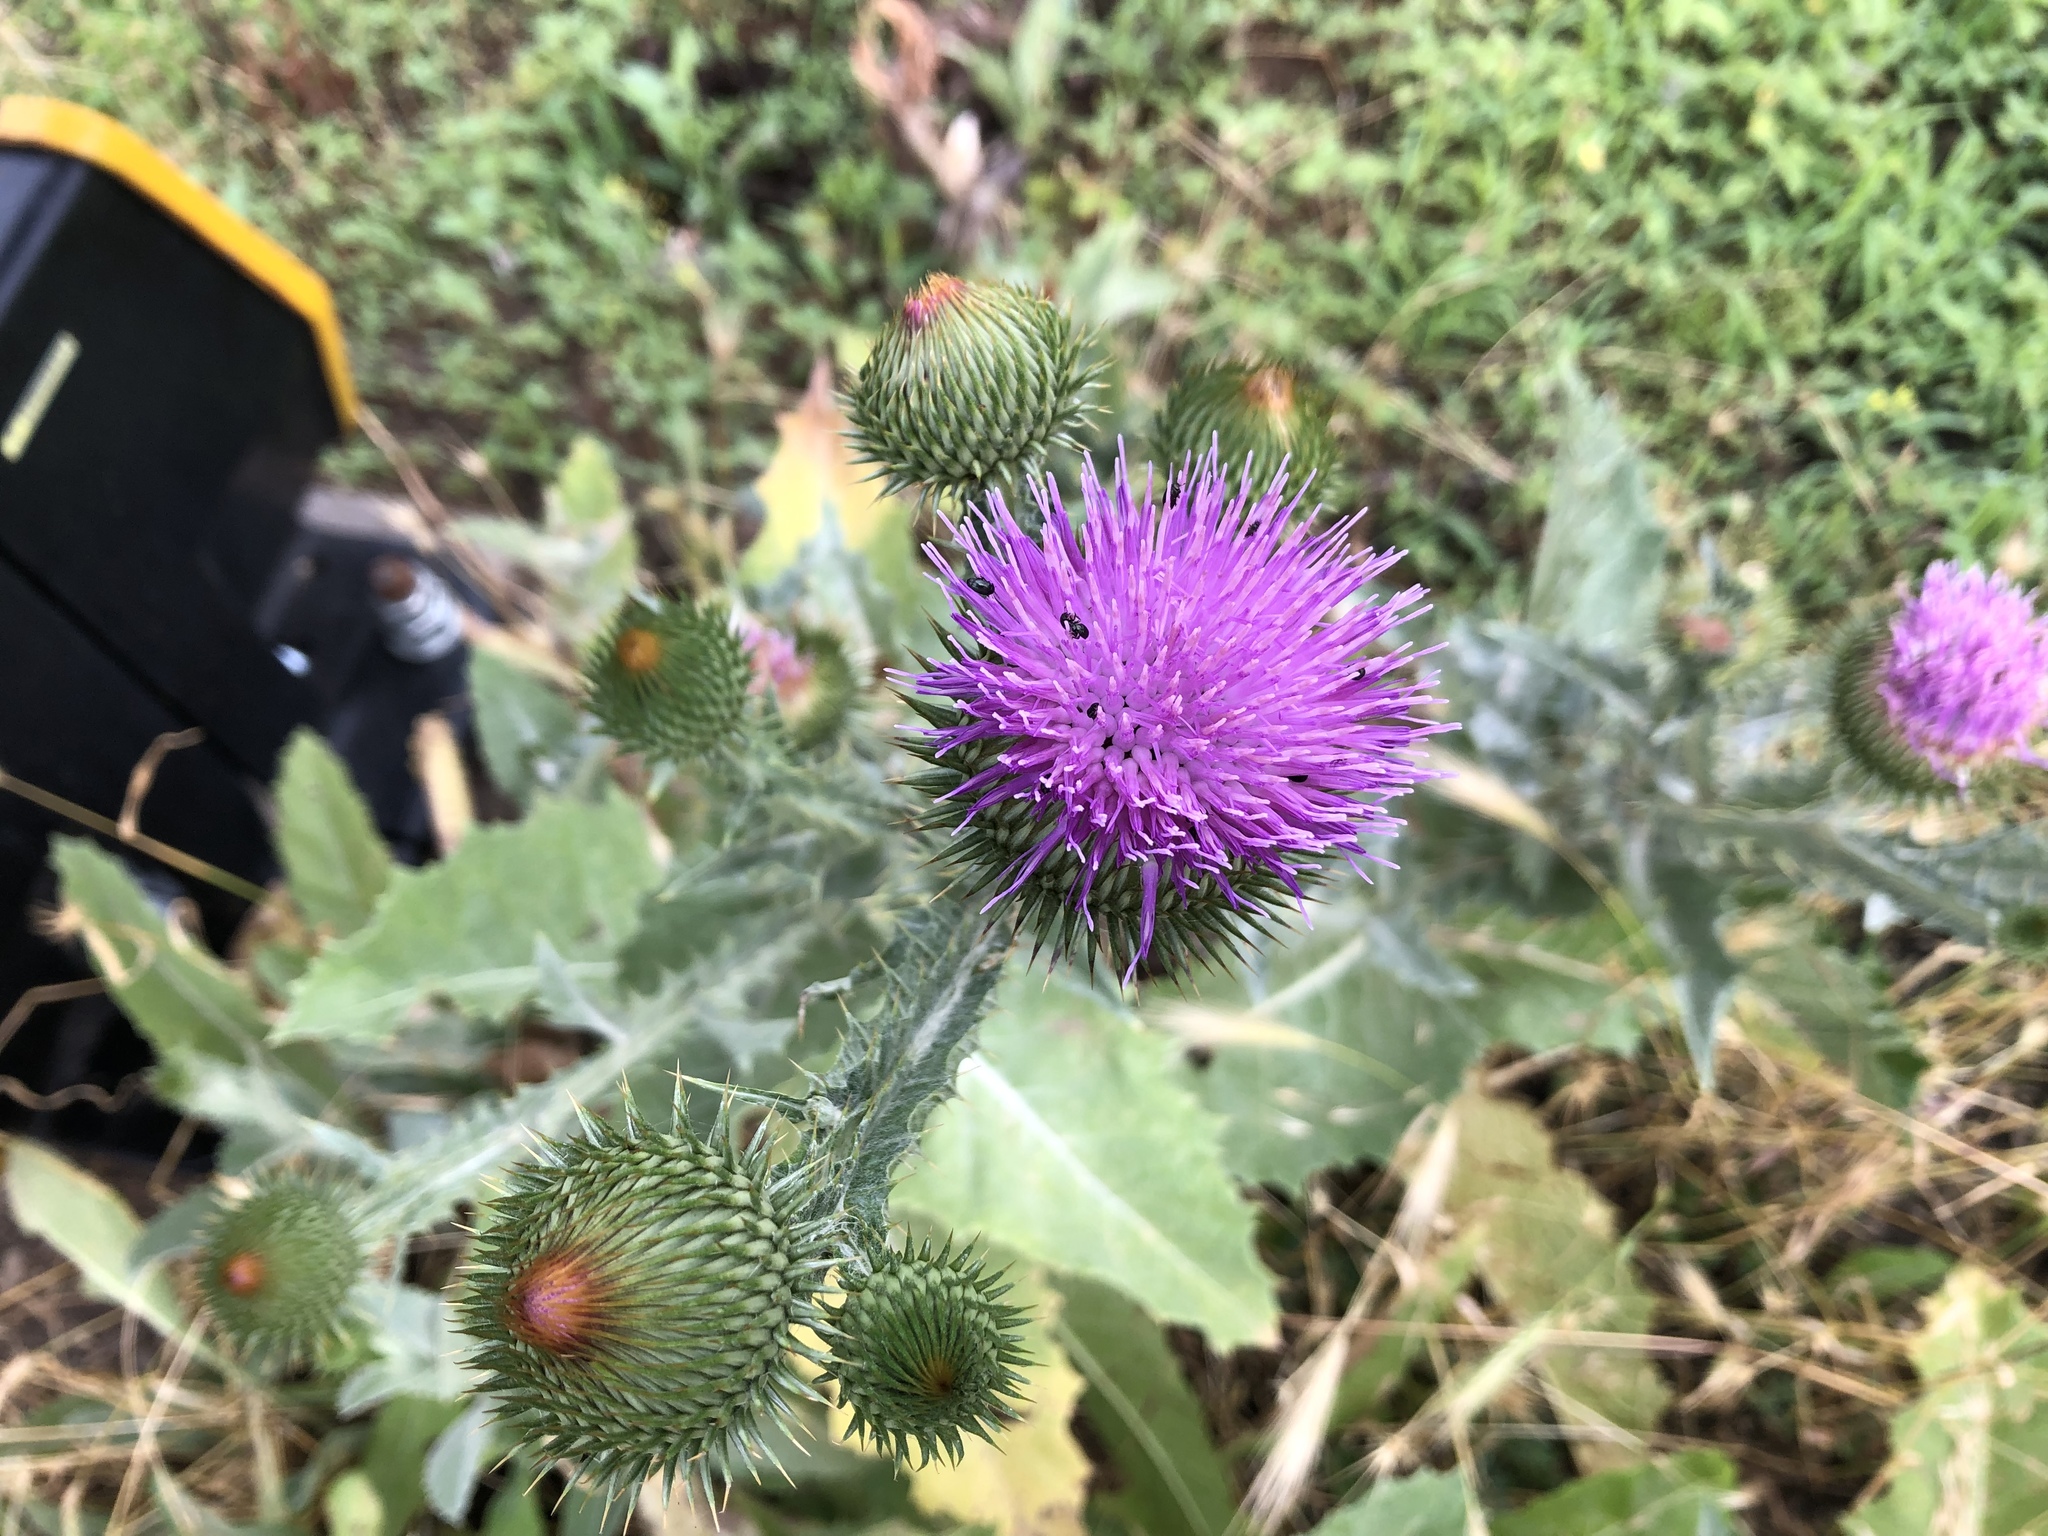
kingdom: Plantae
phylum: Tracheophyta
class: Magnoliopsida
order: Asterales
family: Asteraceae
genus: Onopordum
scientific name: Onopordum acanthium
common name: Scotch thistle
